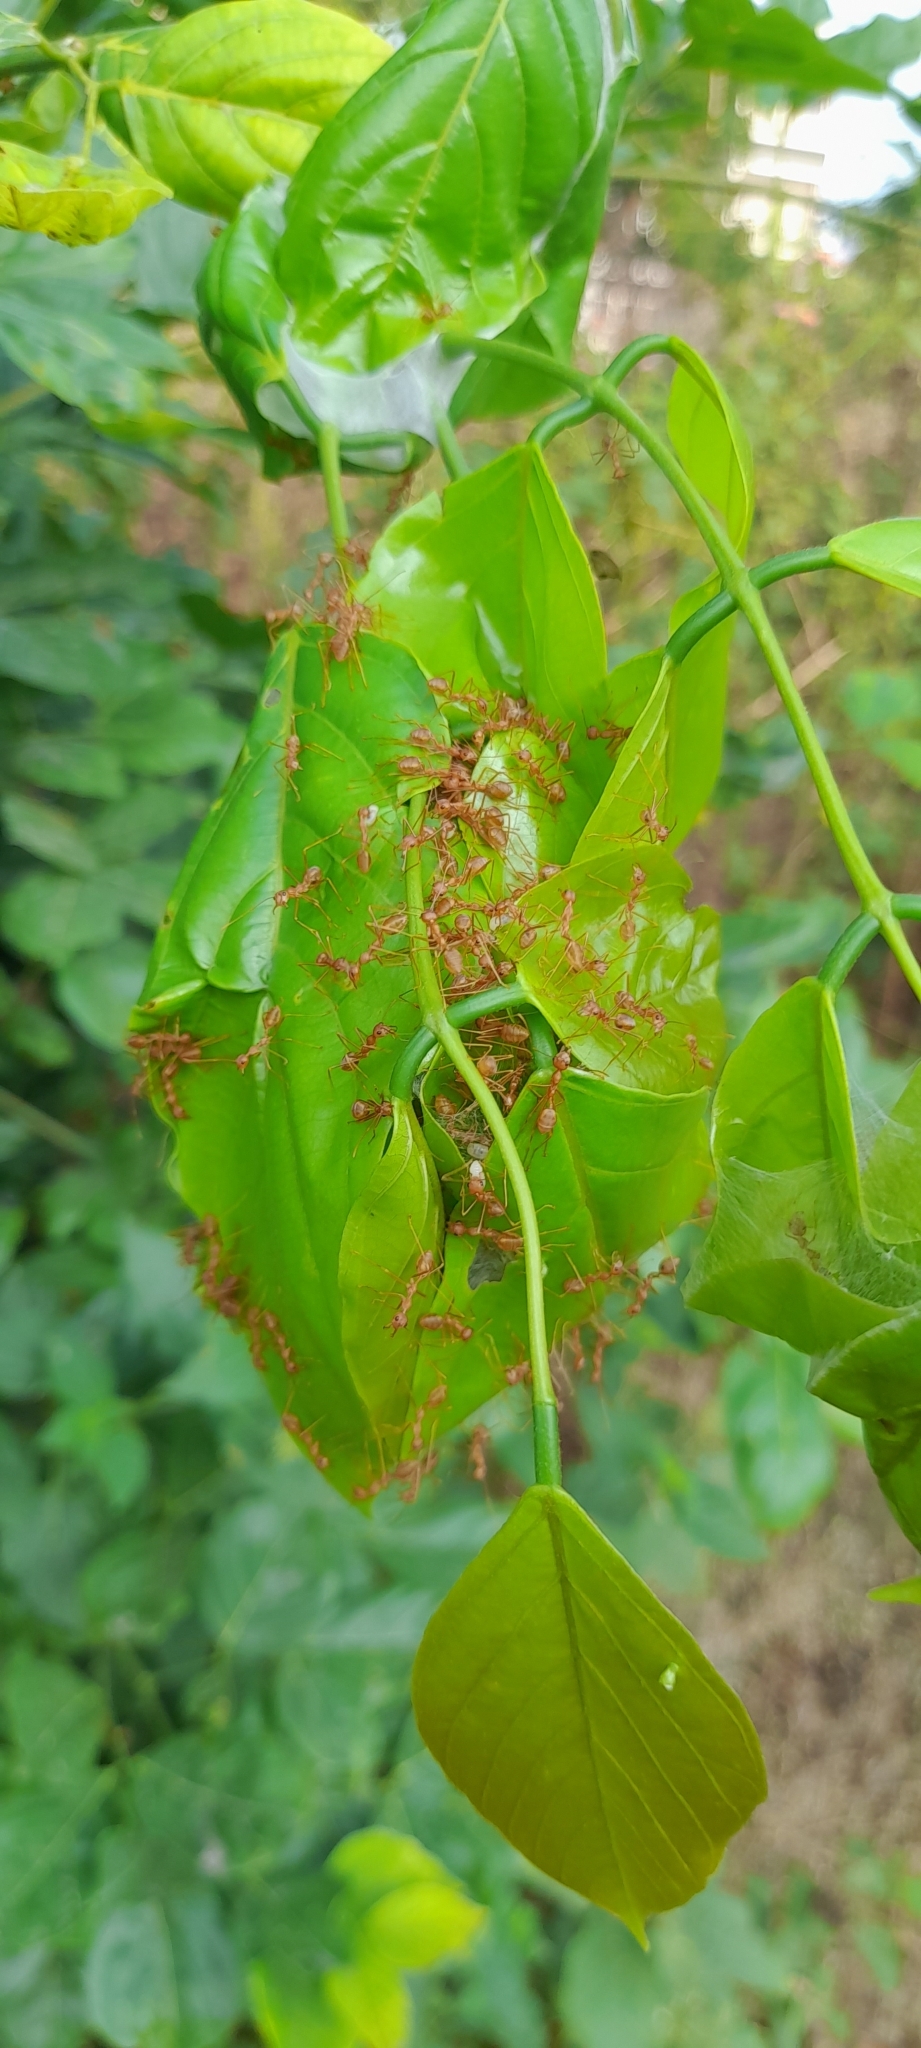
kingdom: Animalia
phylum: Arthropoda
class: Insecta
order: Hymenoptera
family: Formicidae
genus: Oecophylla
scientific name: Oecophylla smaragdina
